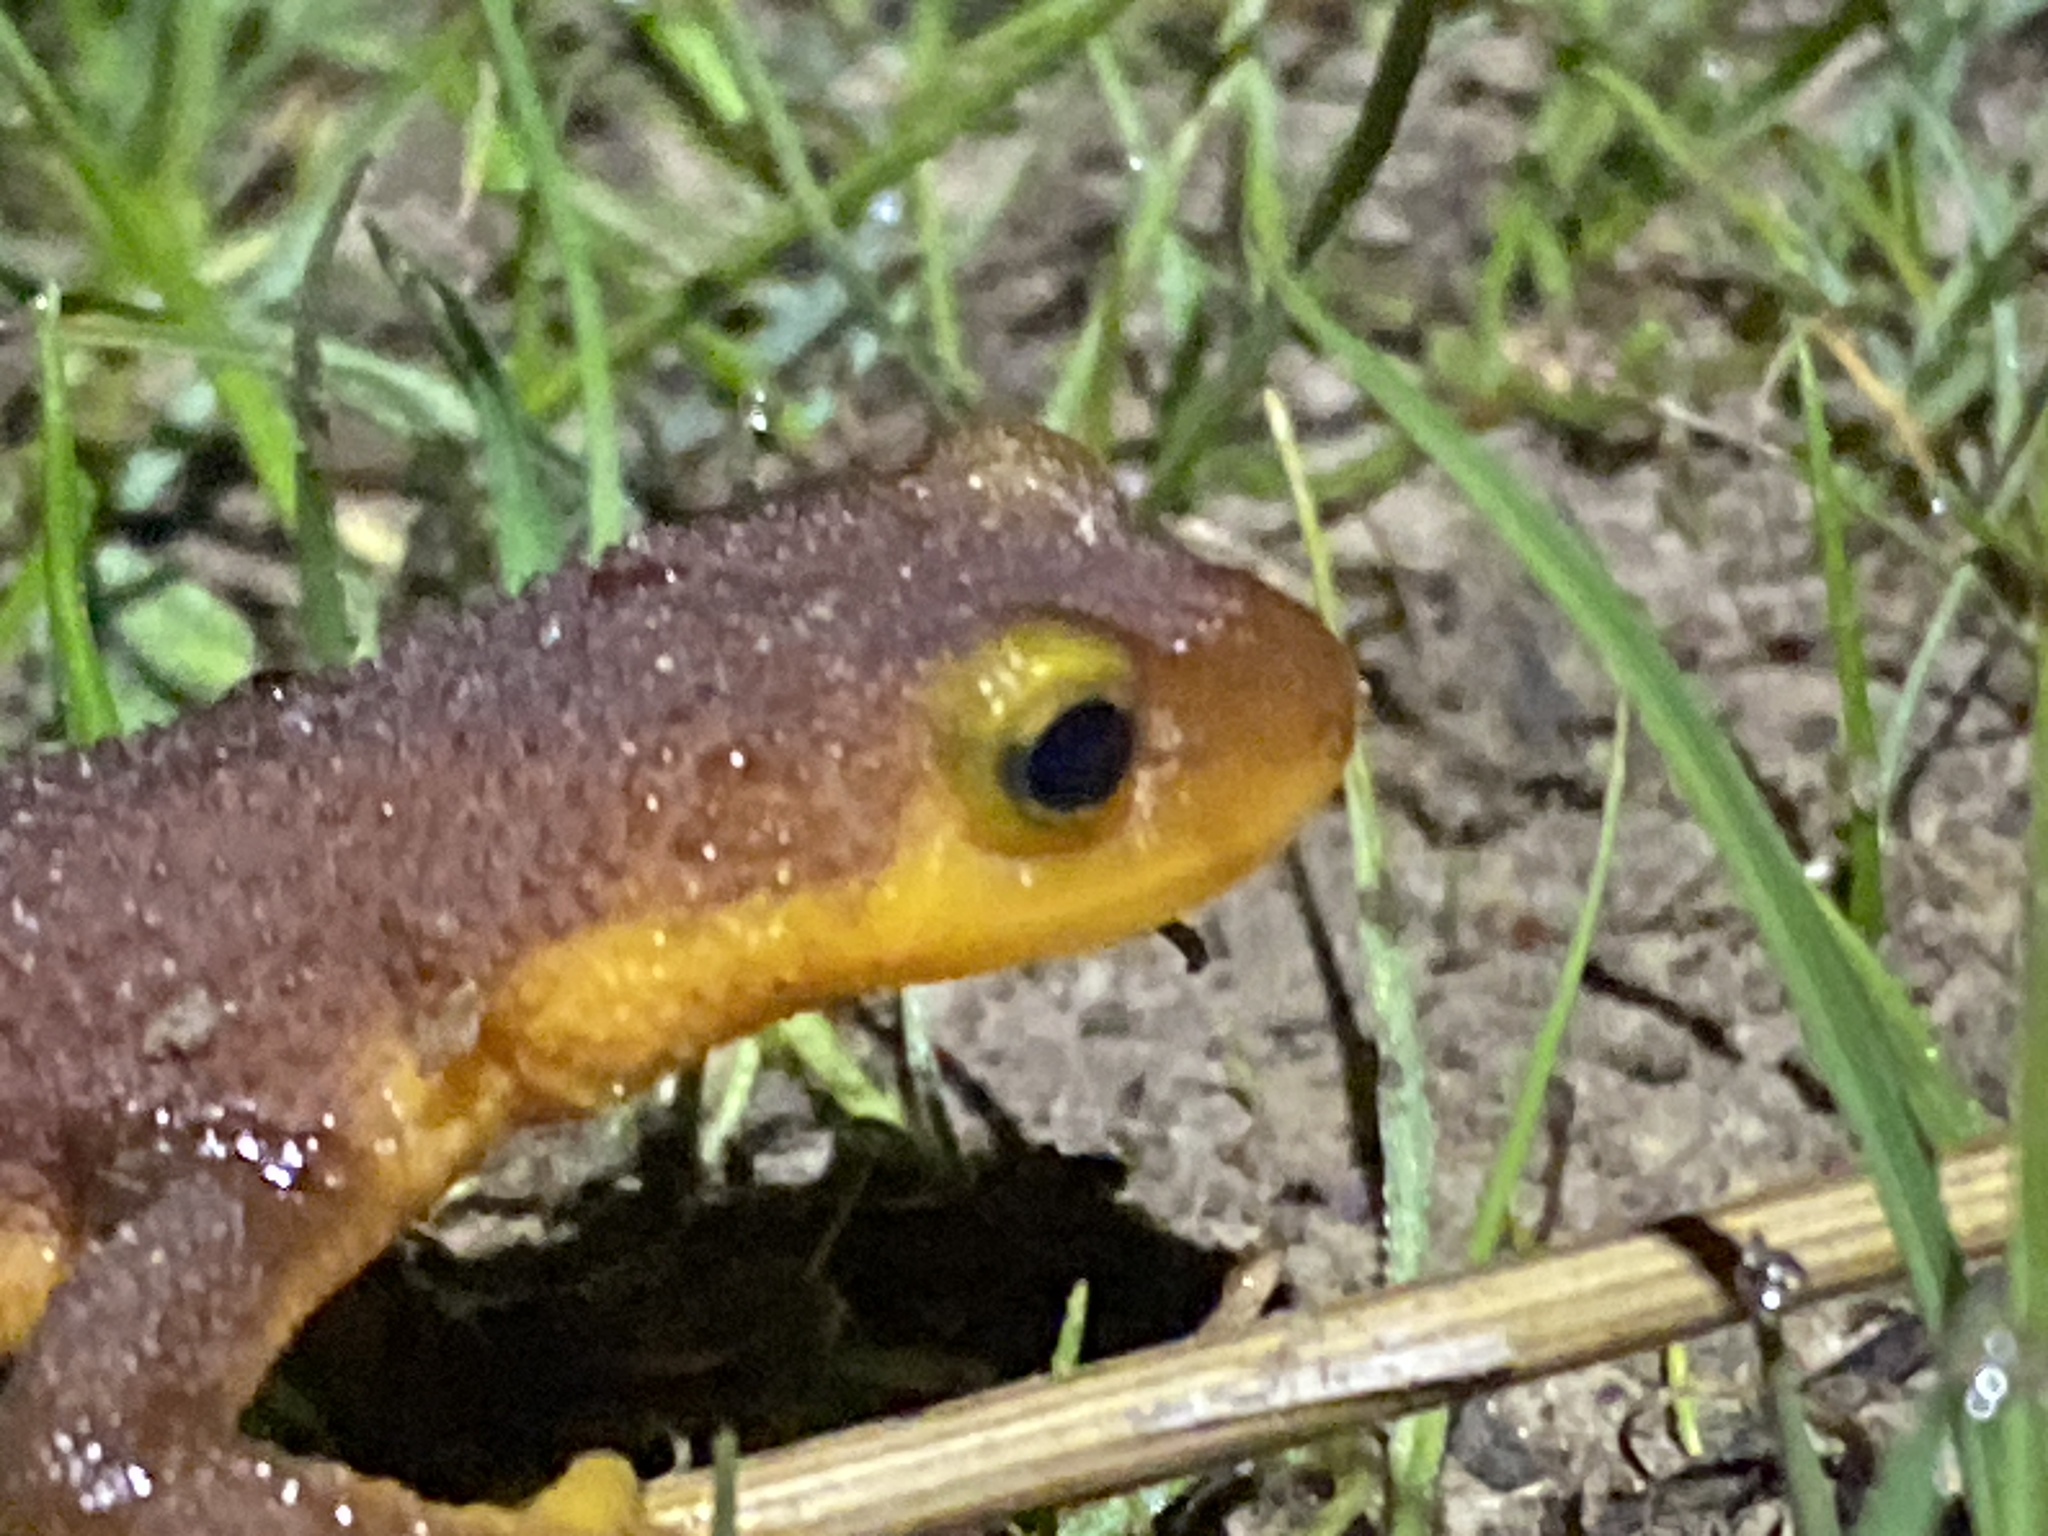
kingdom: Animalia
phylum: Chordata
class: Amphibia
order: Caudata
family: Salamandridae
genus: Taricha
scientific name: Taricha torosa
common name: California newt
